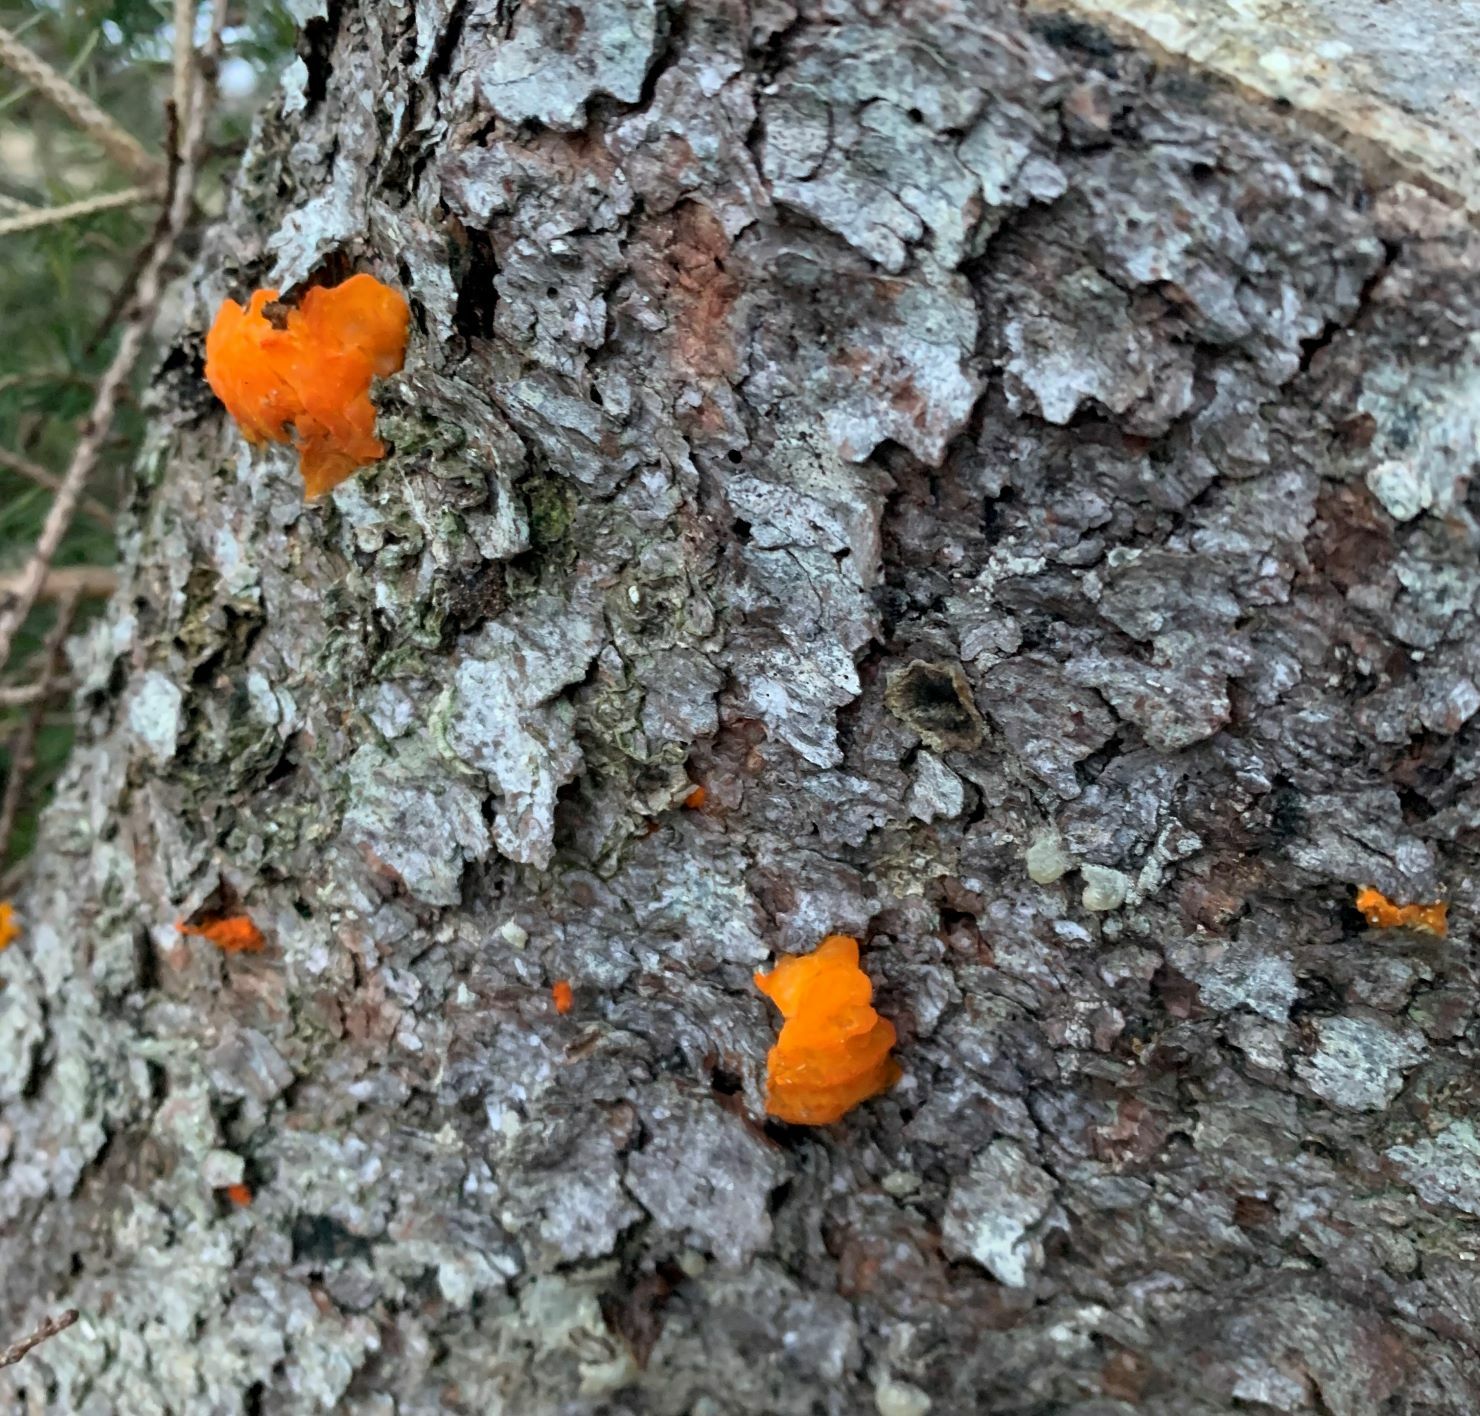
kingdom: Fungi
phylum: Basidiomycota
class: Dacrymycetes
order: Dacrymycetales
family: Dacrymycetaceae
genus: Dacrymyces
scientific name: Dacrymyces chrysospermus
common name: Orange jelly spot
